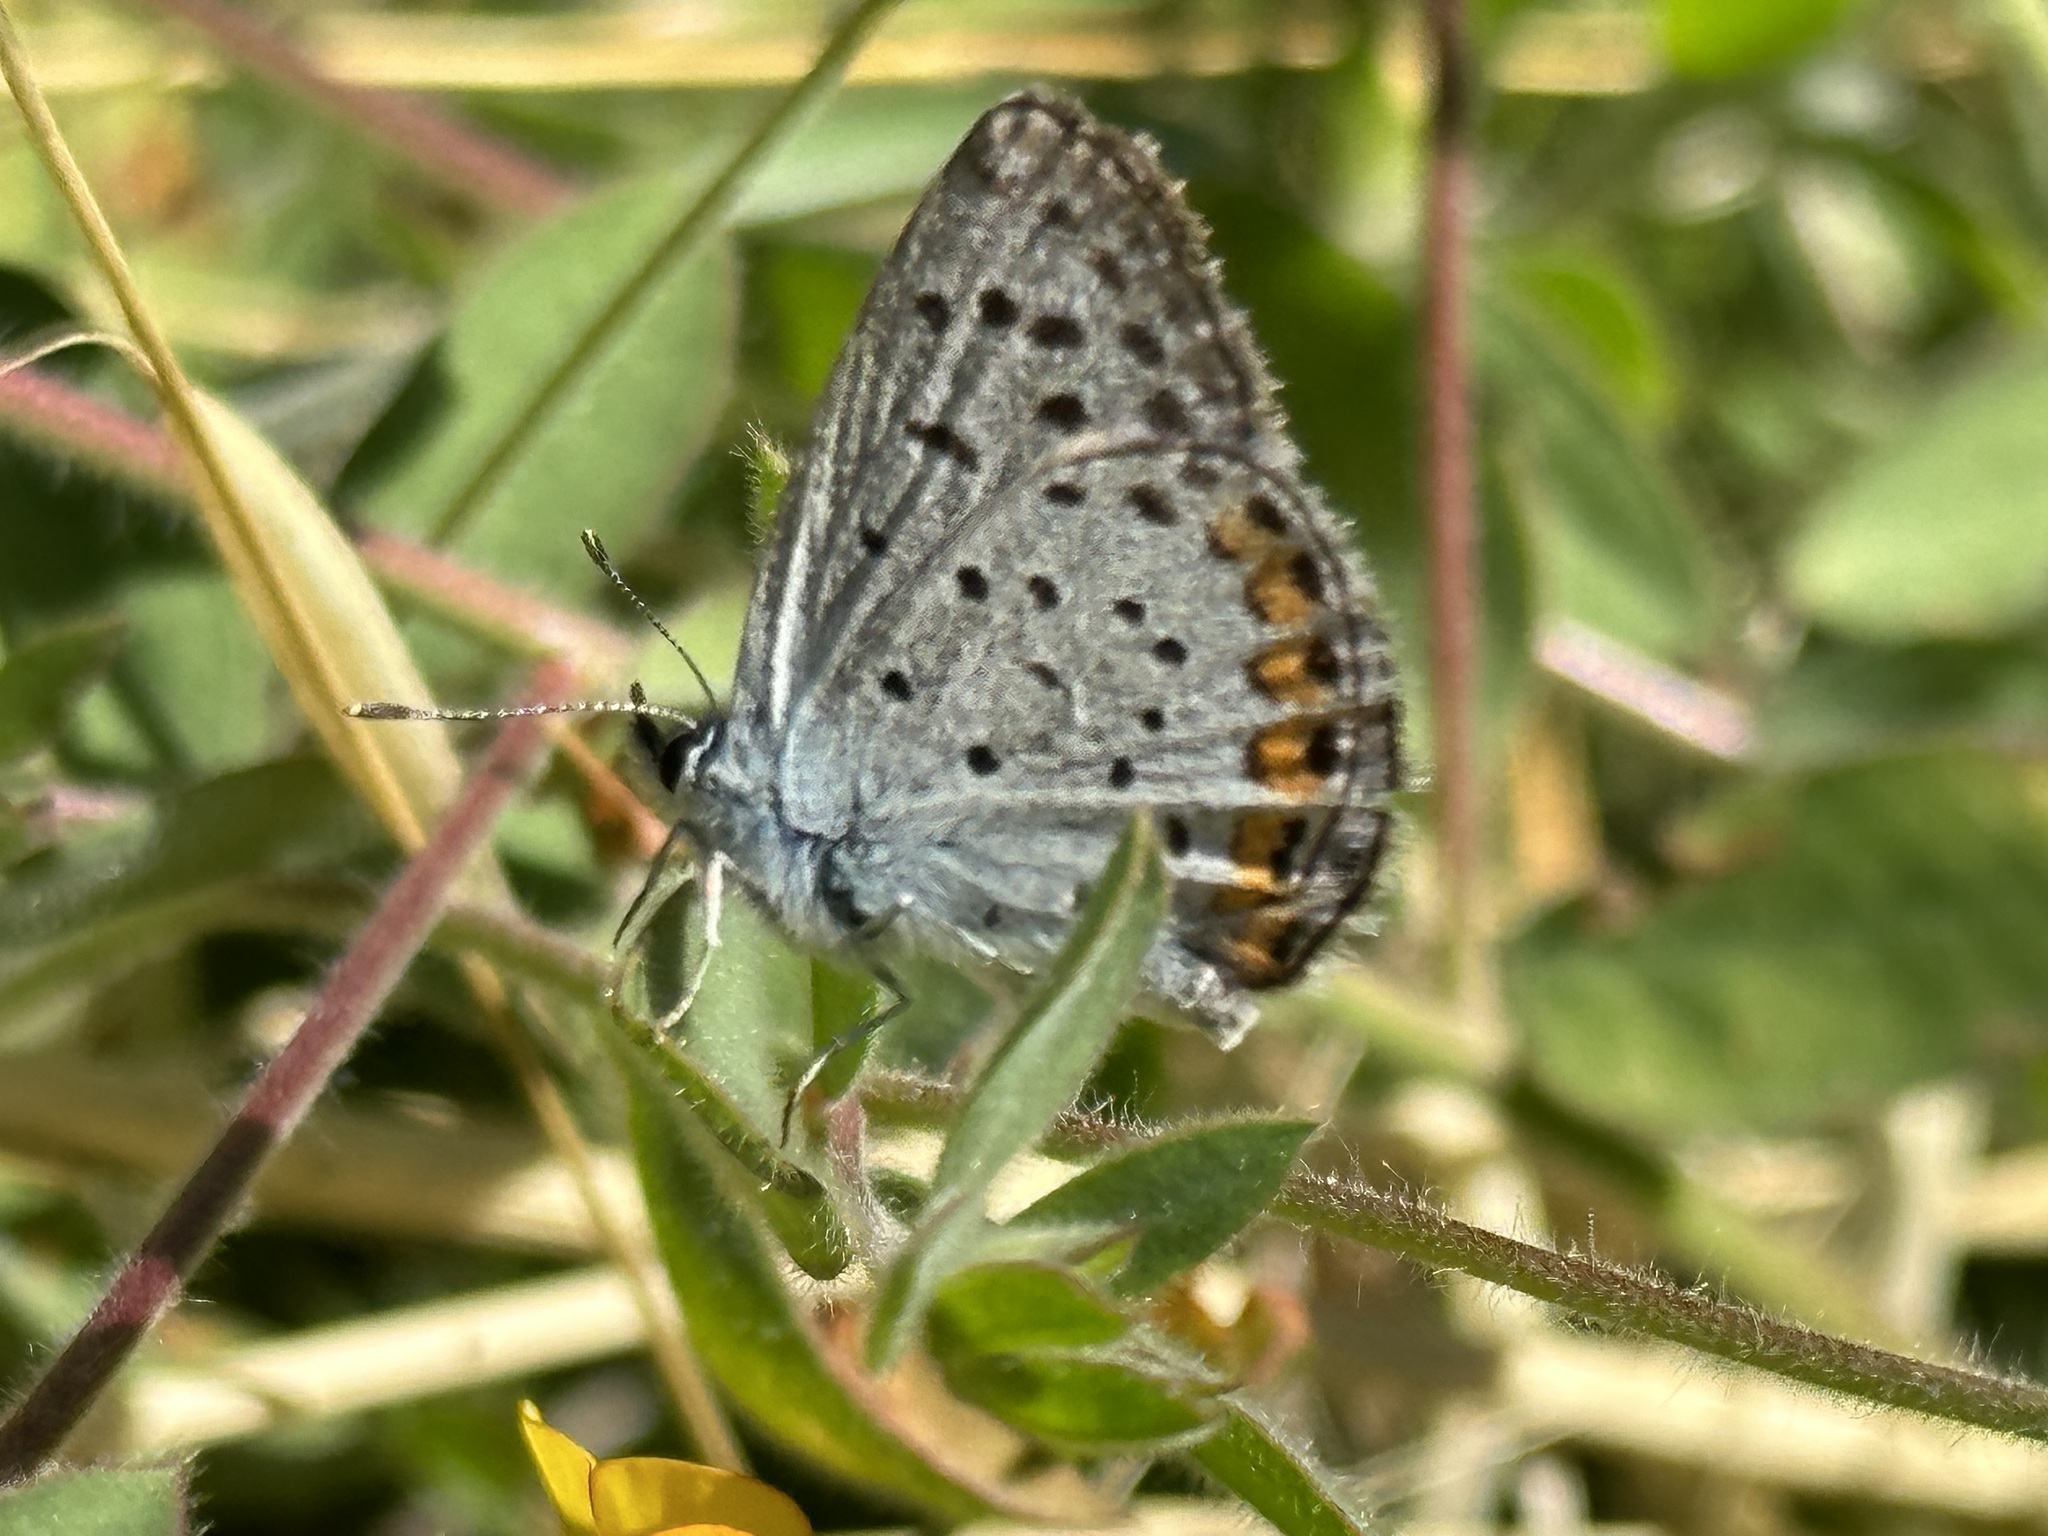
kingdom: Animalia
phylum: Arthropoda
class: Insecta
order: Lepidoptera
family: Lycaenidae
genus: Icaricia
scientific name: Icaricia acmon
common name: Acmon blue
